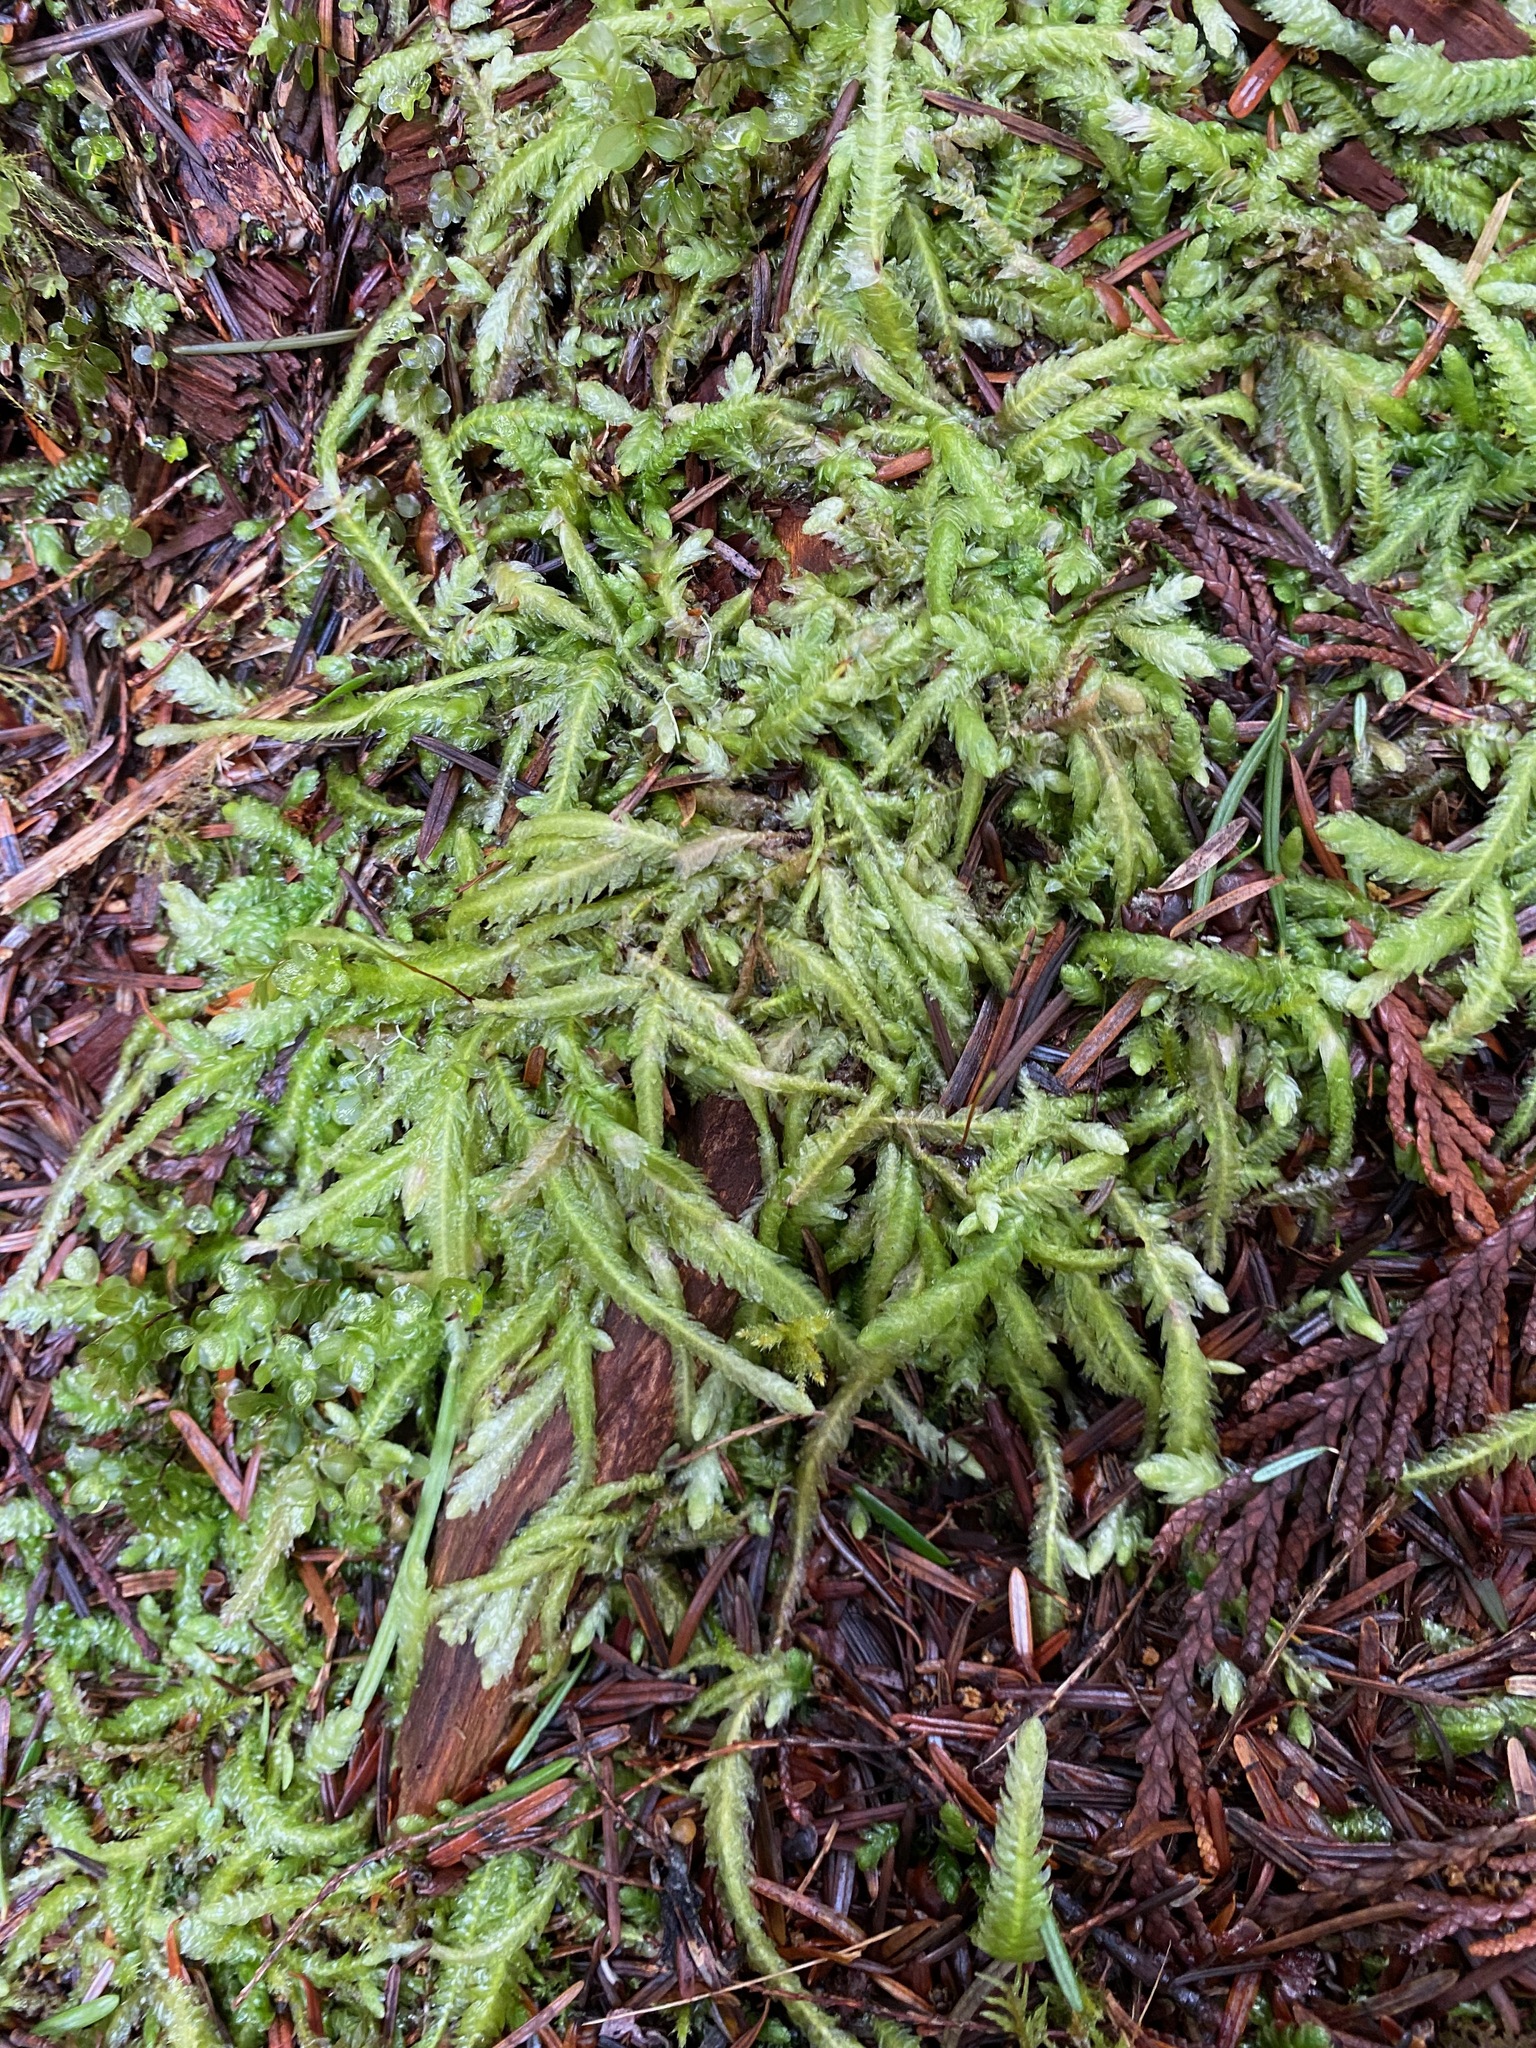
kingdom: Plantae
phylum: Bryophyta
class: Bryopsida
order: Hypnales
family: Plagiotheciaceae
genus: Plagiothecium
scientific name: Plagiothecium undulatum
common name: Waved silk-moss
